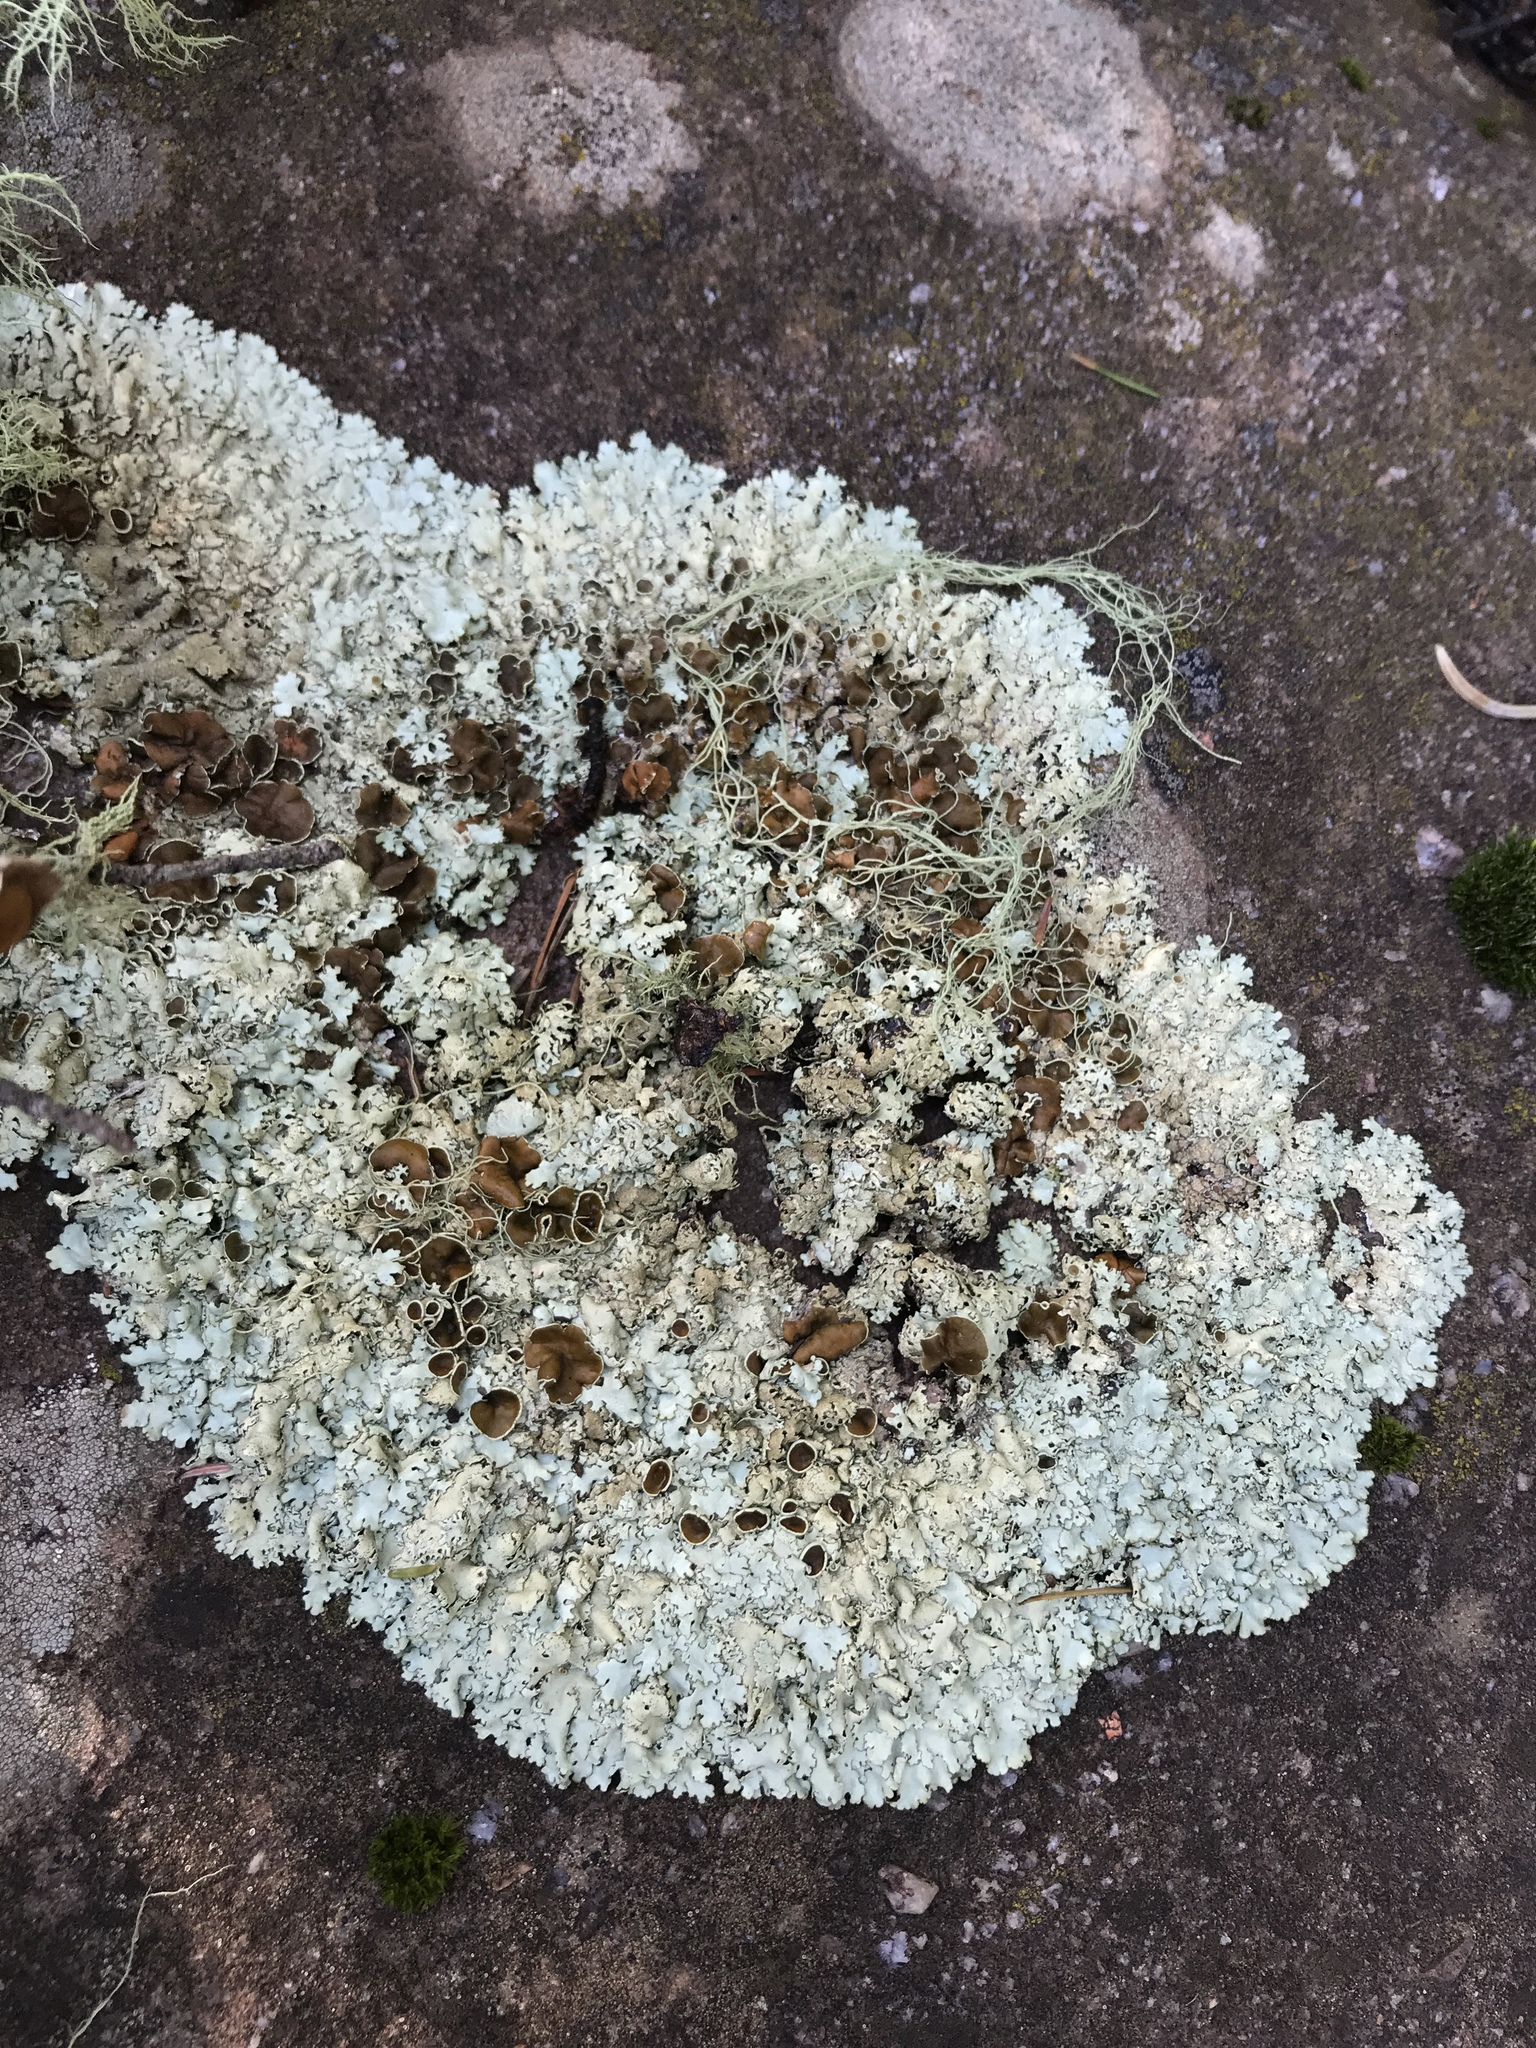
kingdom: Fungi
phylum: Ascomycota
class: Lecanoromycetes
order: Lecanorales
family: Parmeliaceae
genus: Xanthoparmelia
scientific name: Xanthoparmelia cumberlandia
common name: Cumberland rock shield
